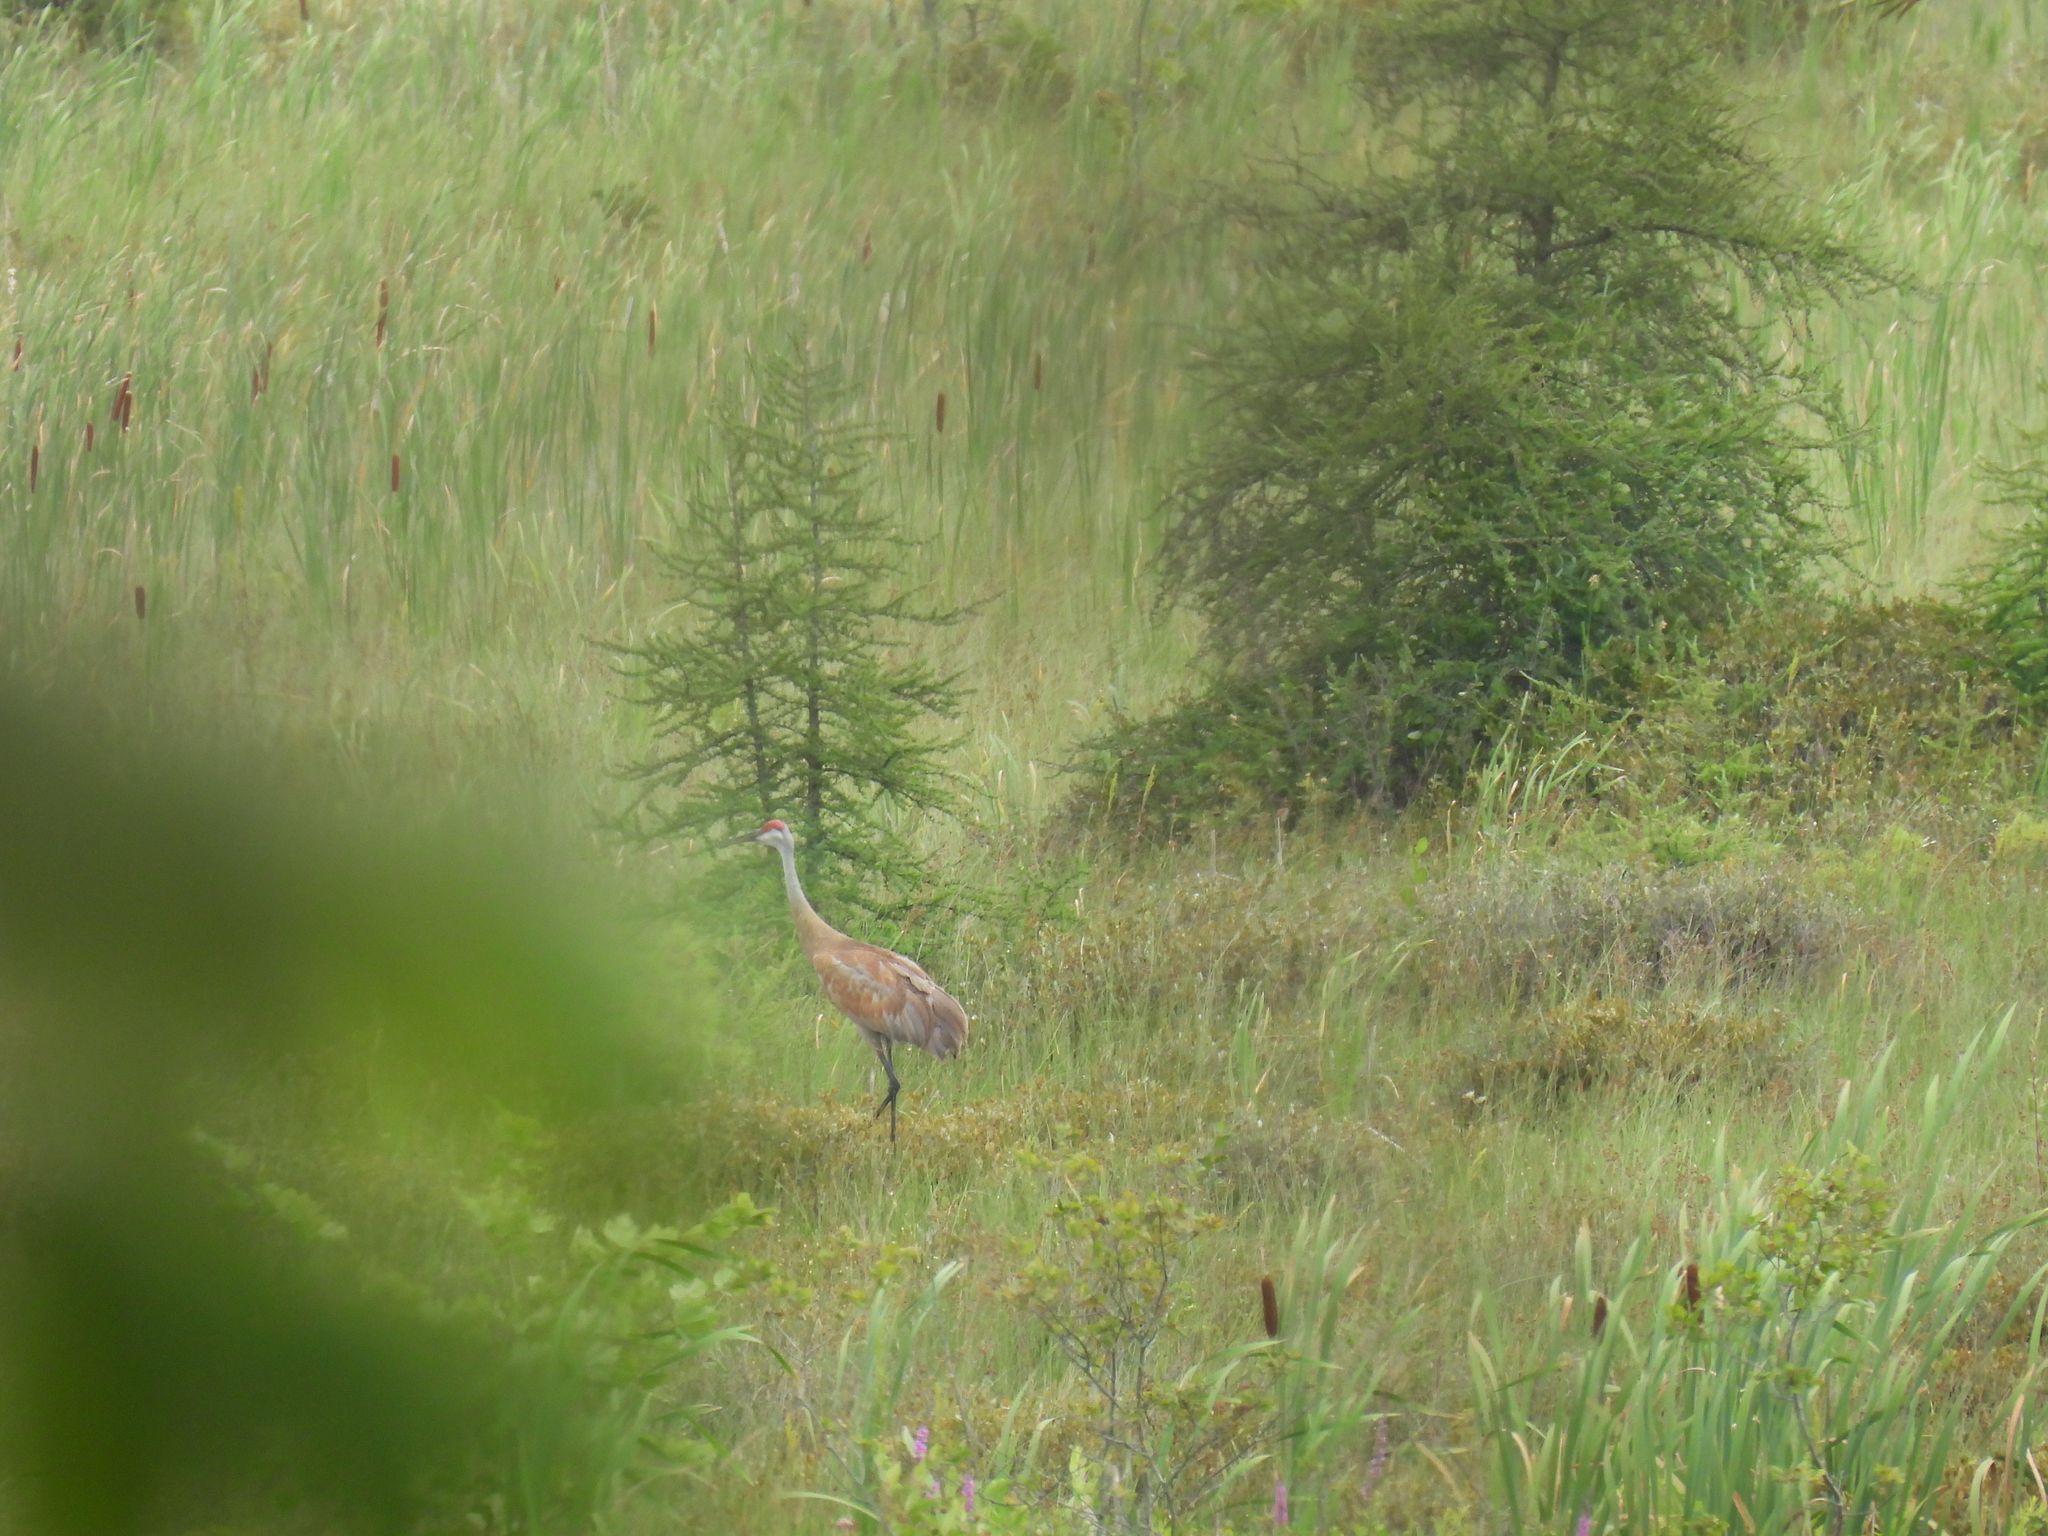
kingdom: Animalia
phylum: Chordata
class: Aves
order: Gruiformes
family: Gruidae
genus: Grus
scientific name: Grus canadensis
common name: Sandhill crane
